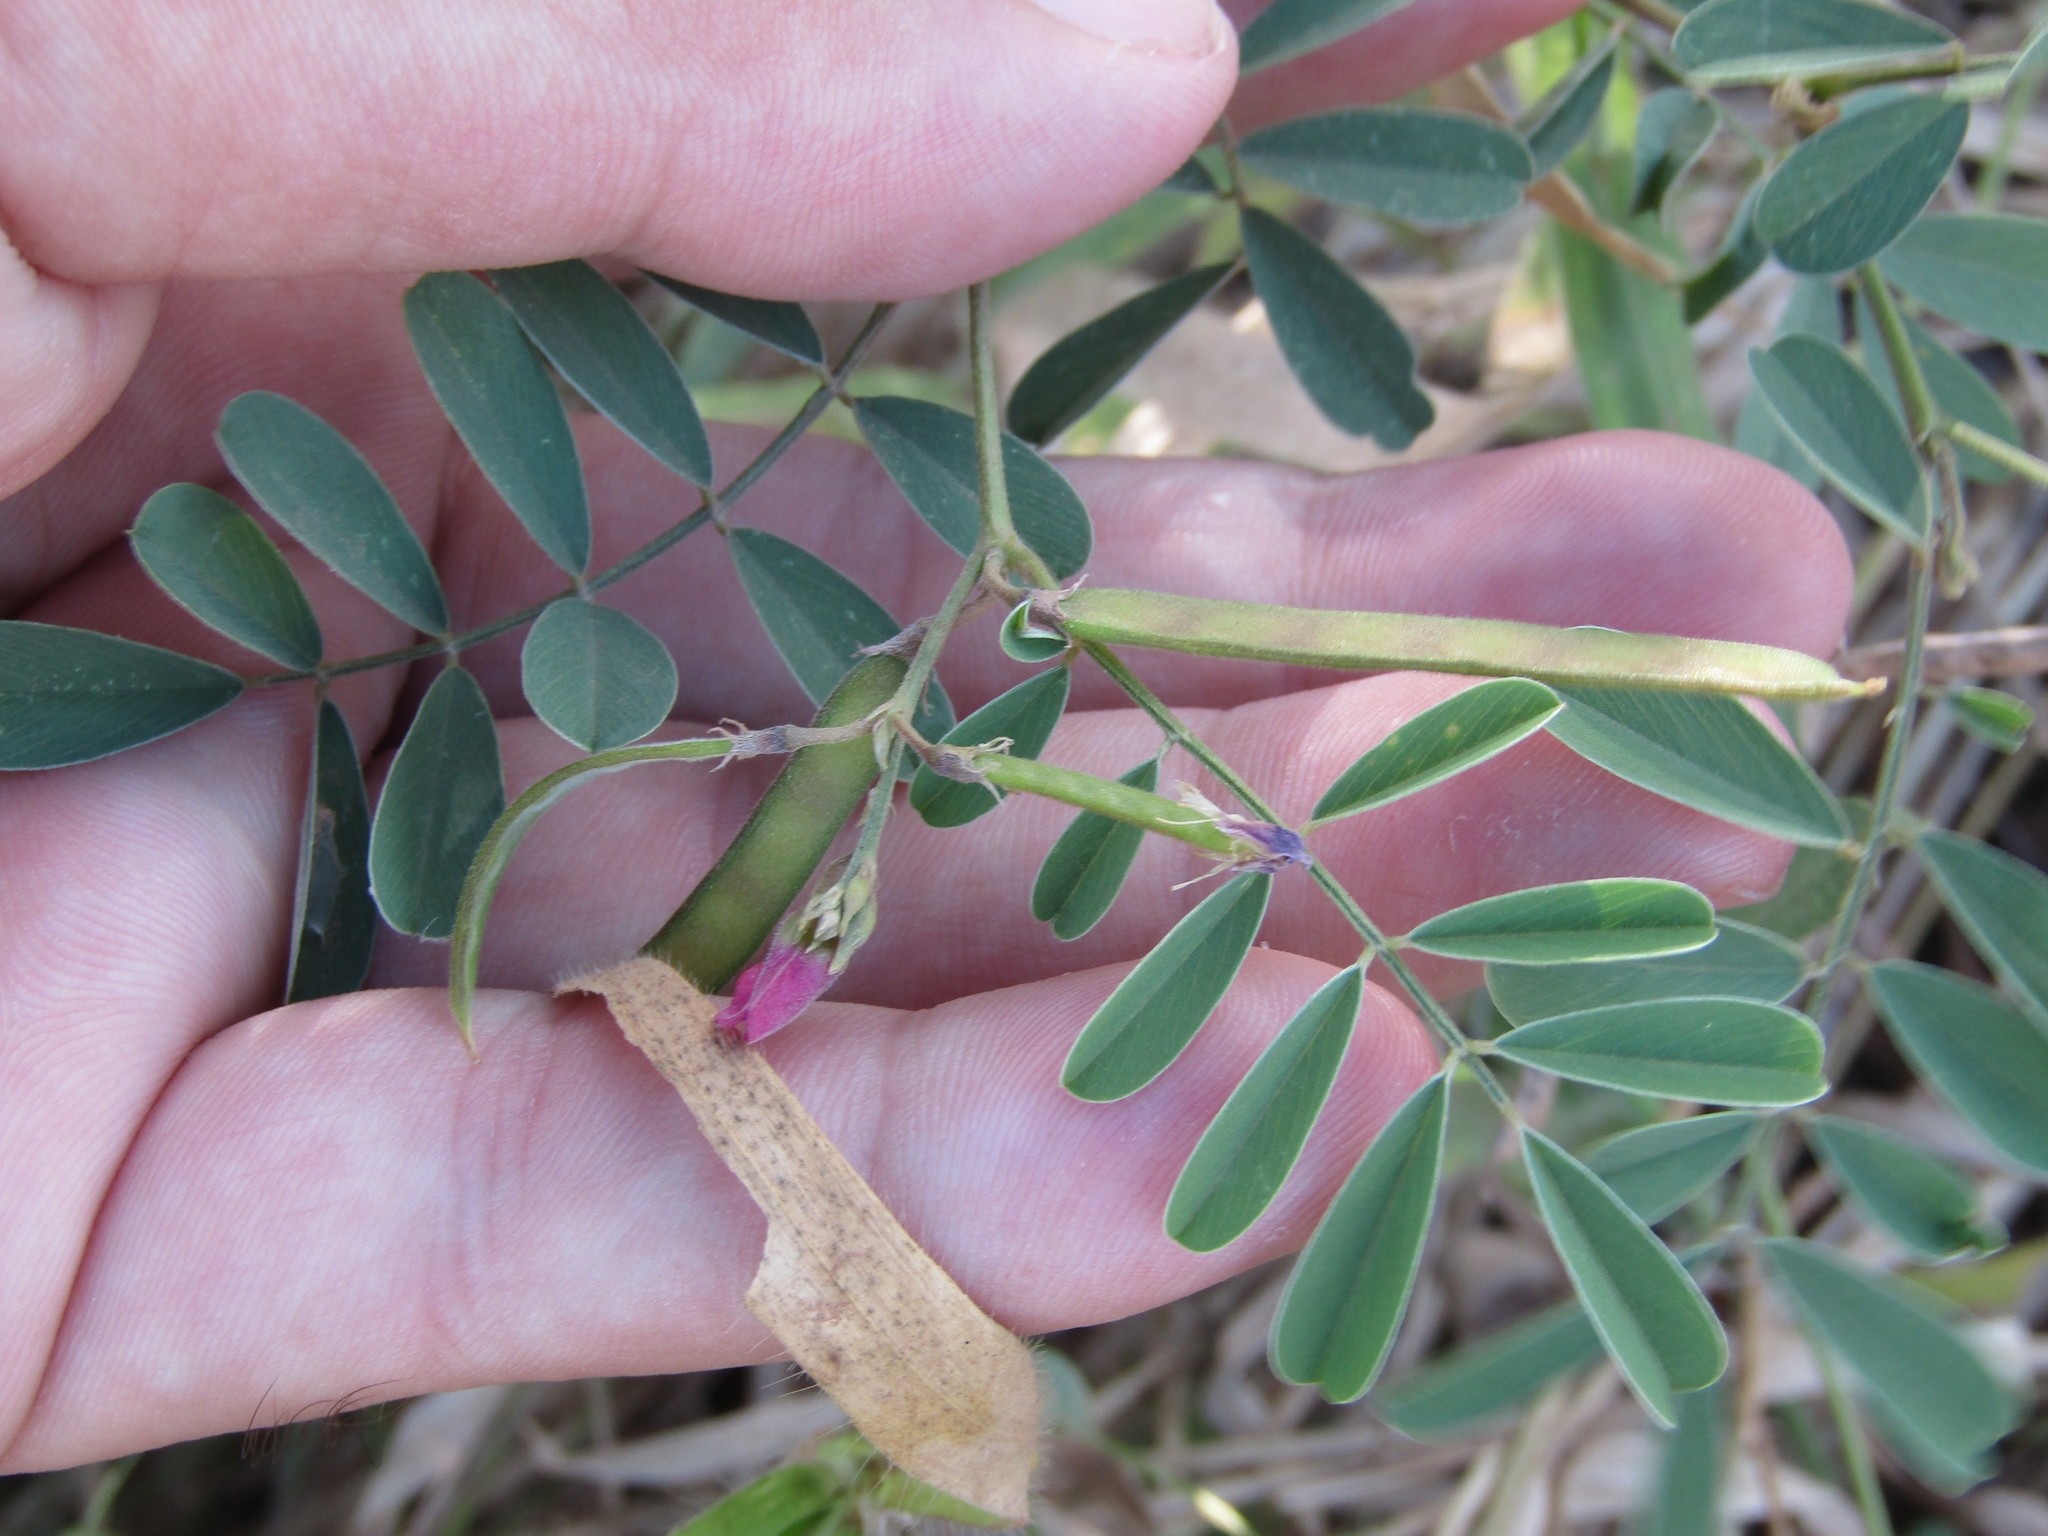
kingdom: Plantae
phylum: Tracheophyta
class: Magnoliopsida
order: Fabales
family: Fabaceae
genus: Tephrosia
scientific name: Tephrosia purpurea
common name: Fishpoison
